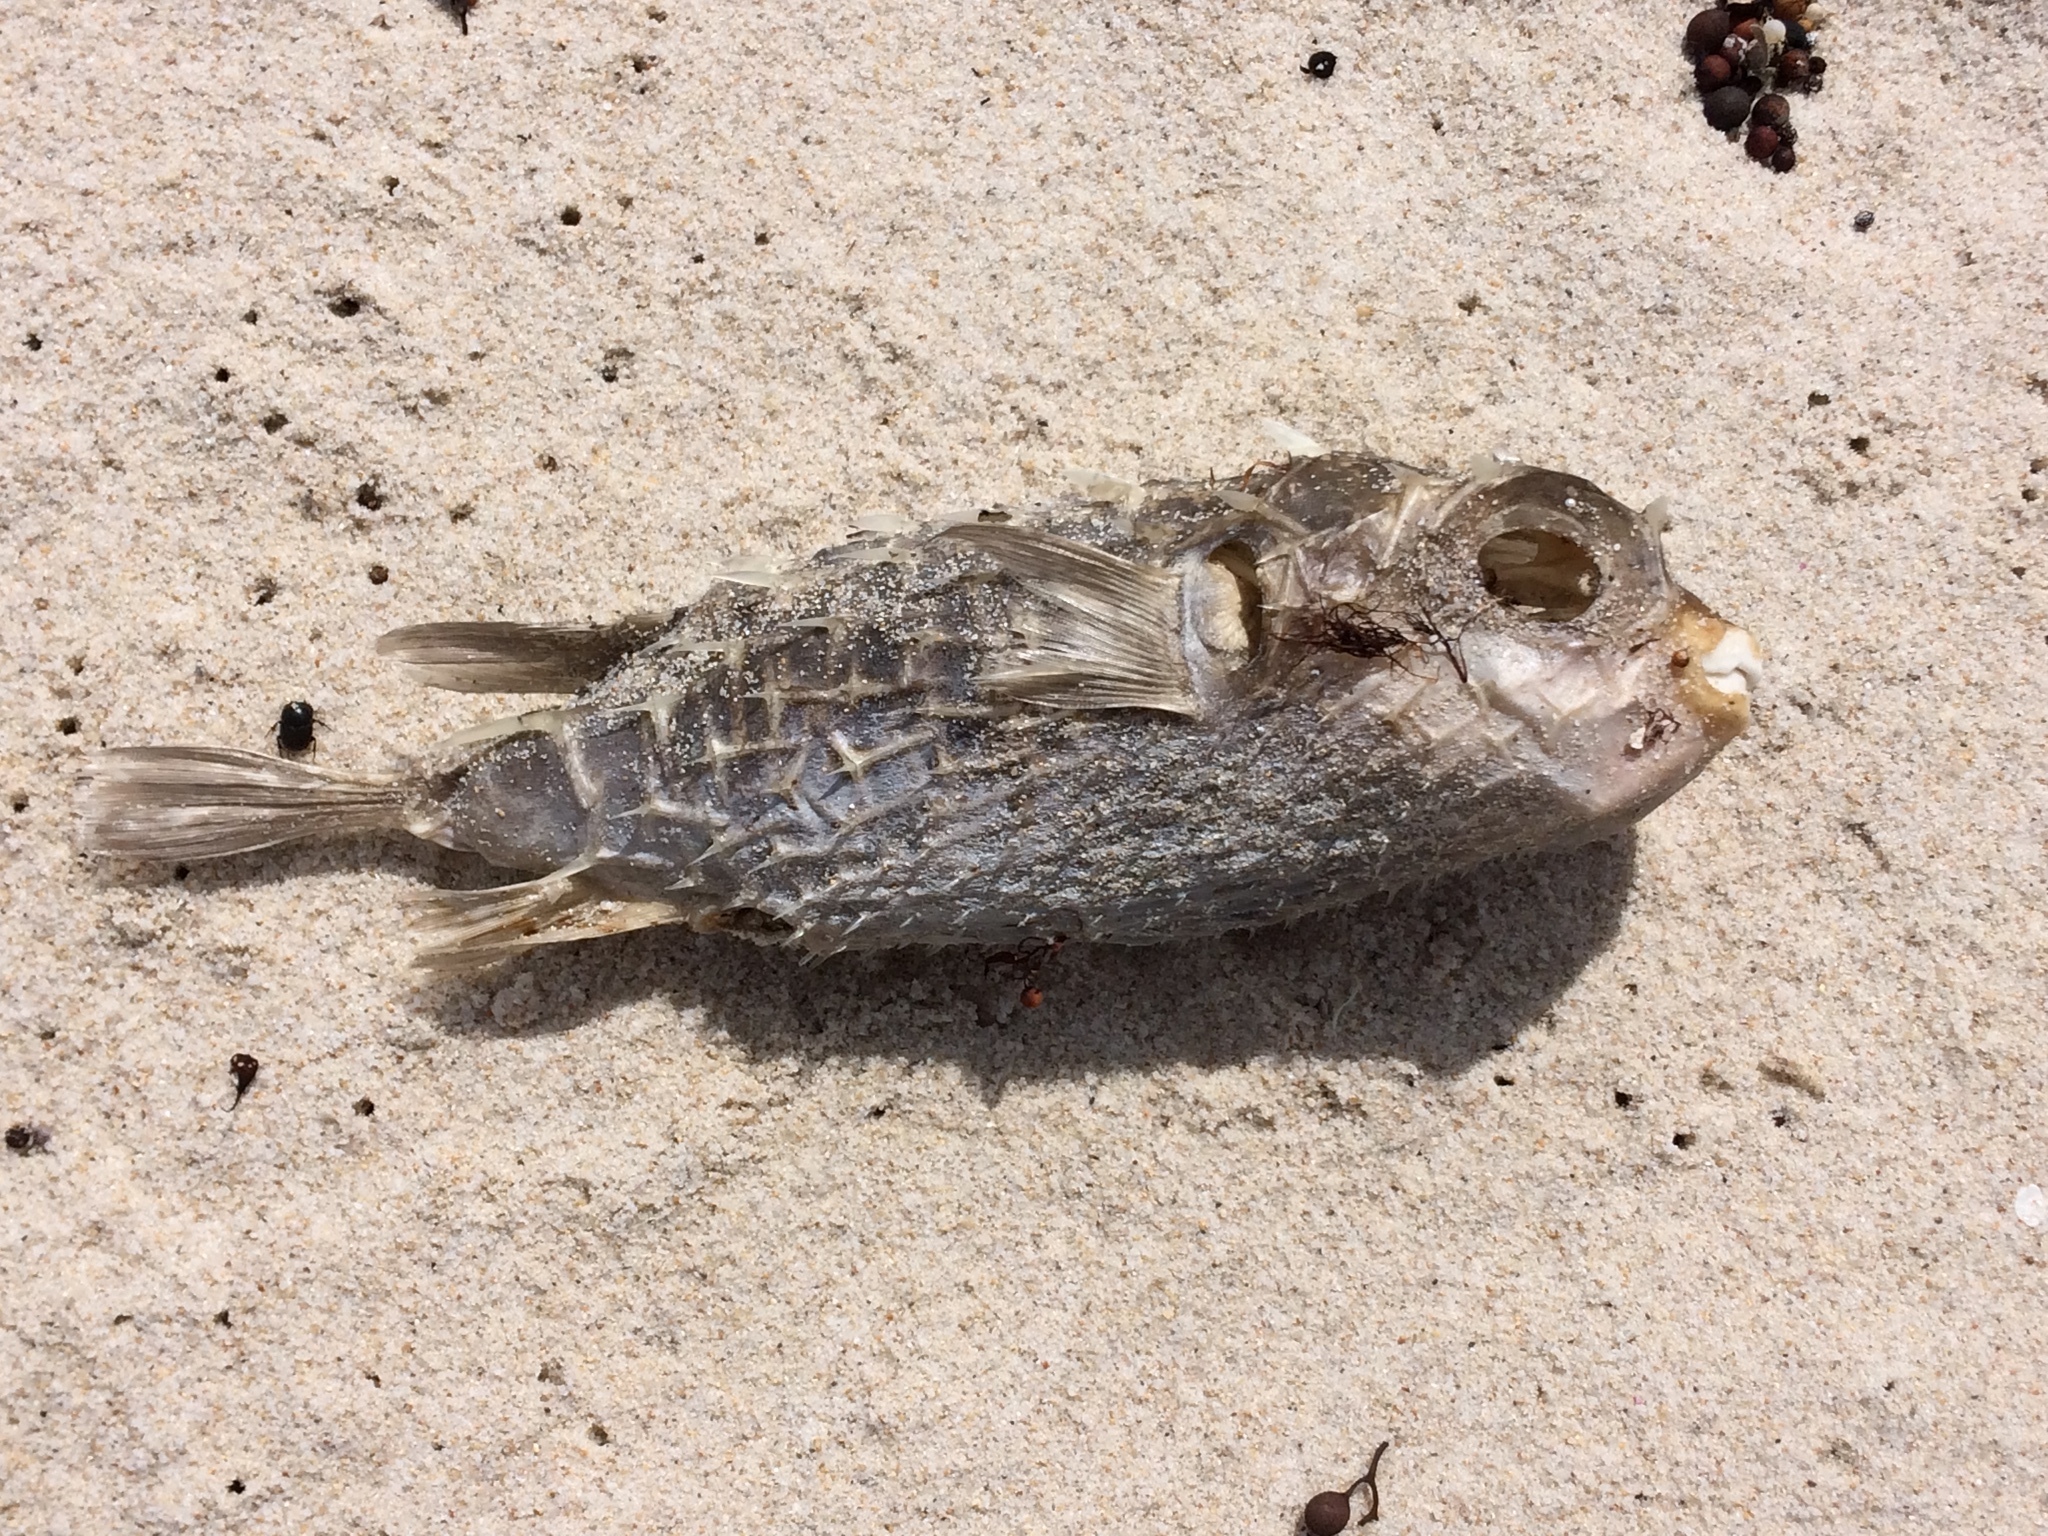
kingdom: Animalia
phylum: Chordata
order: Tetraodontiformes
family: Diodontidae
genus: Allomycterus
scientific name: Allomycterus pilatus
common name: No common name
